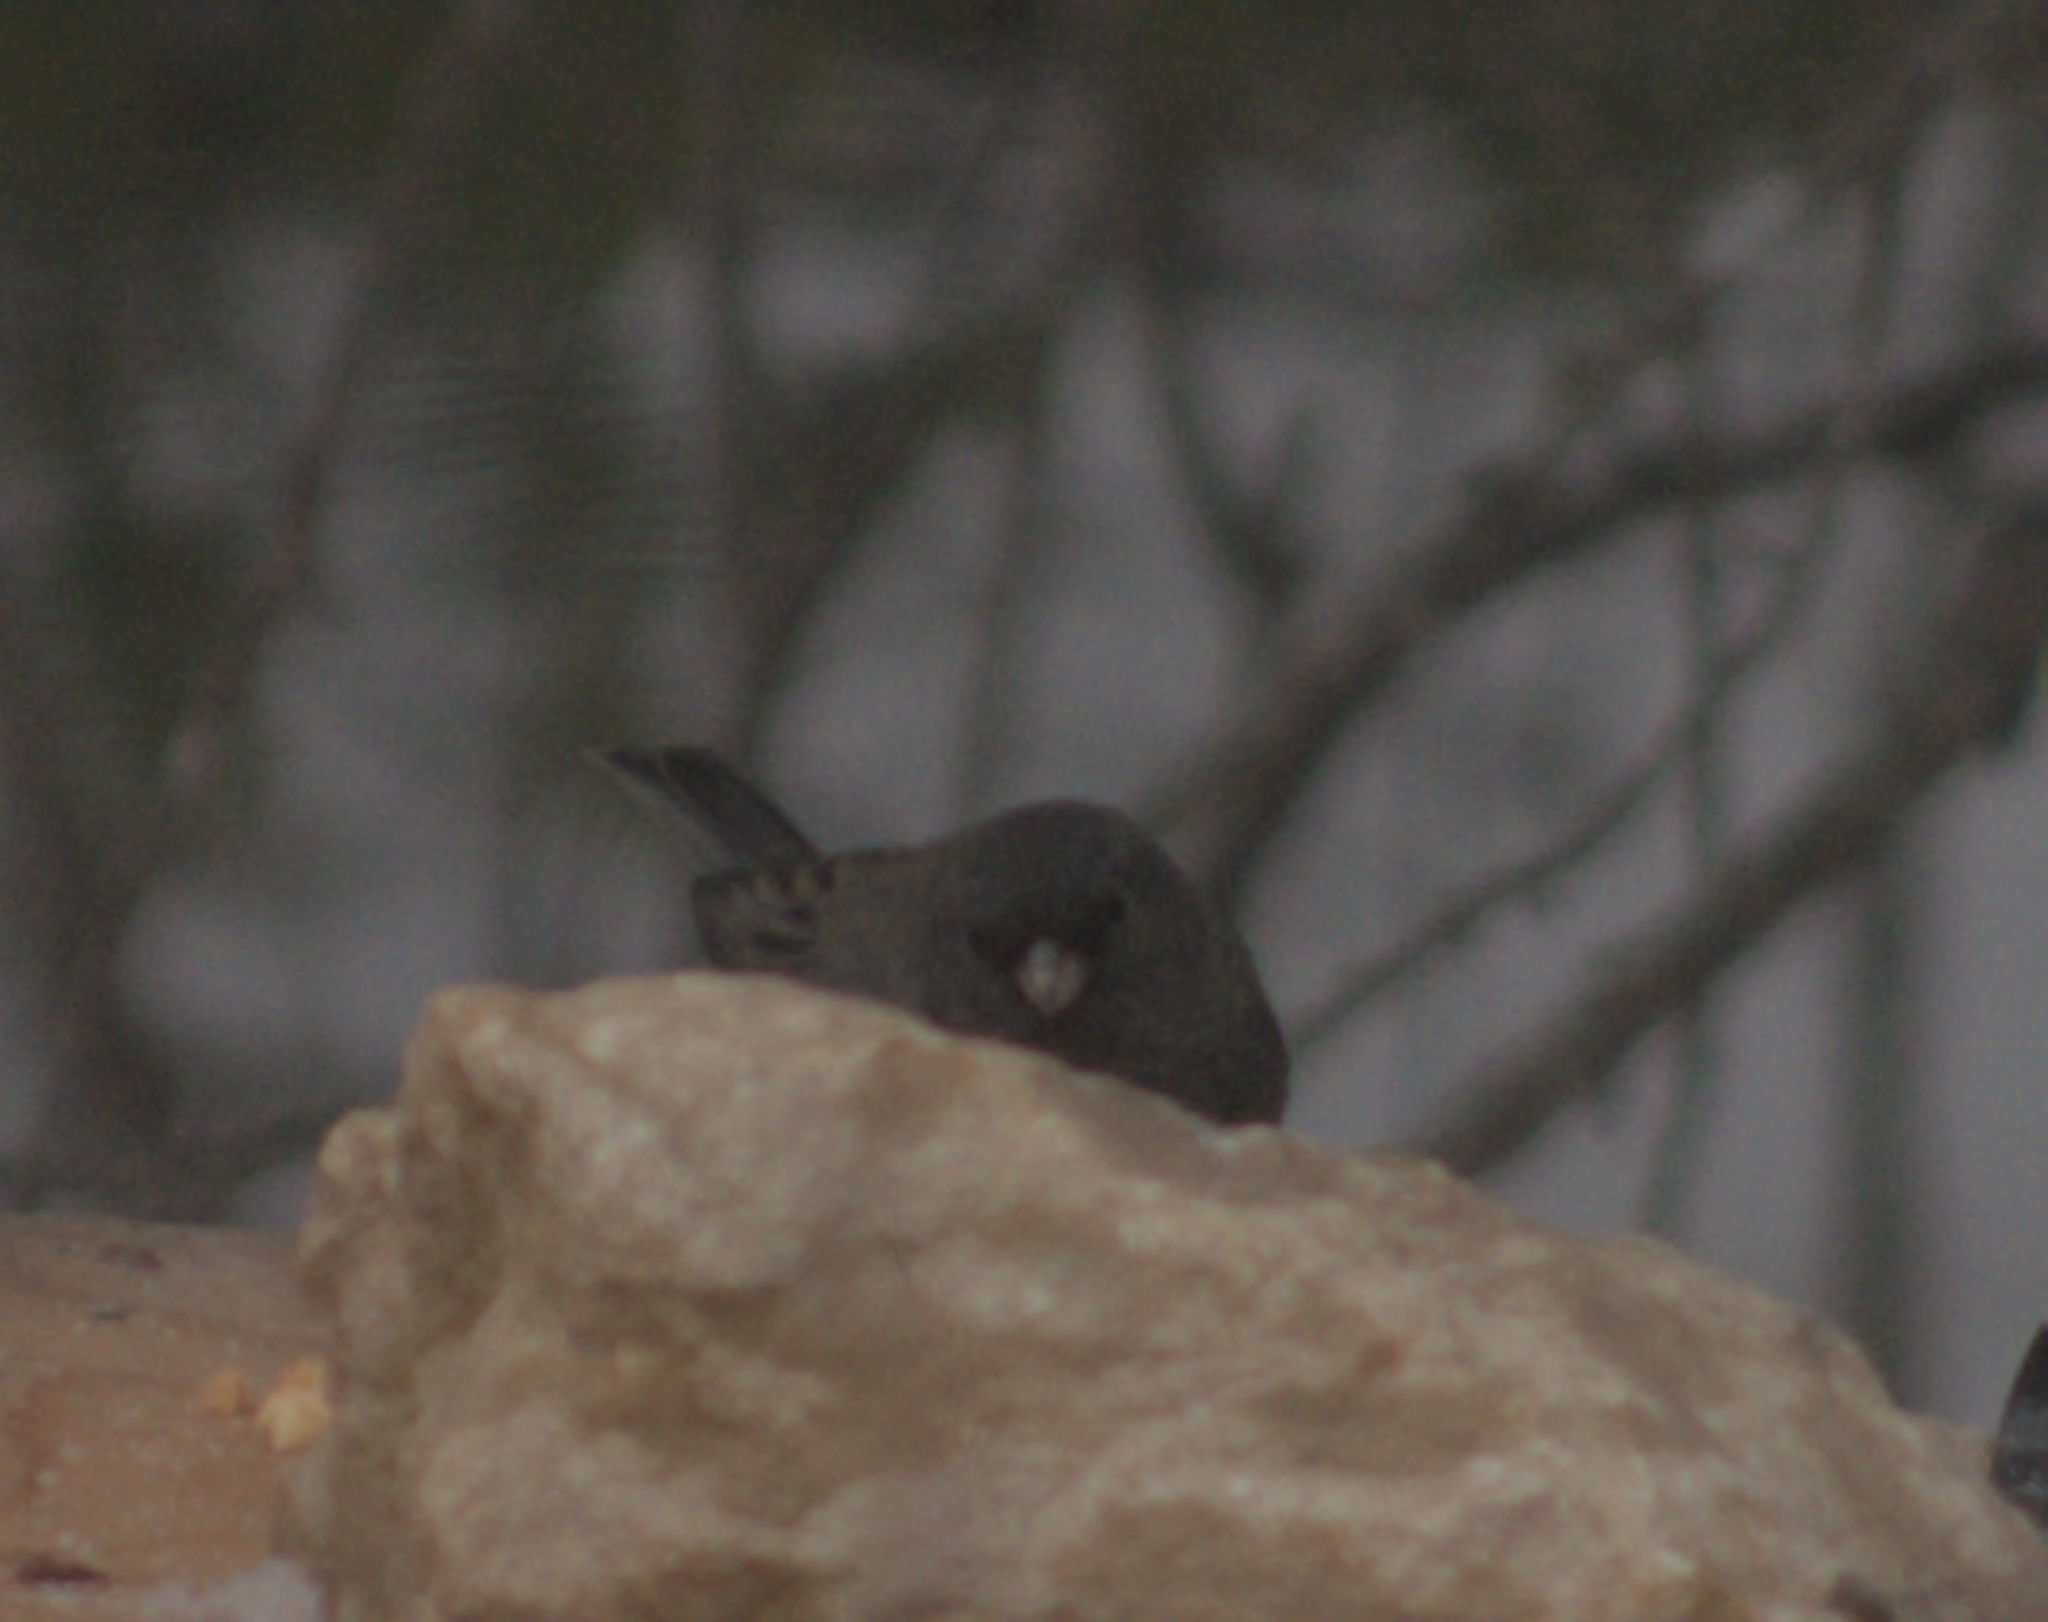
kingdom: Animalia
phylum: Chordata
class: Aves
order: Passeriformes
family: Passerellidae
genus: Junco
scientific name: Junco hyemalis
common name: Dark-eyed junco
